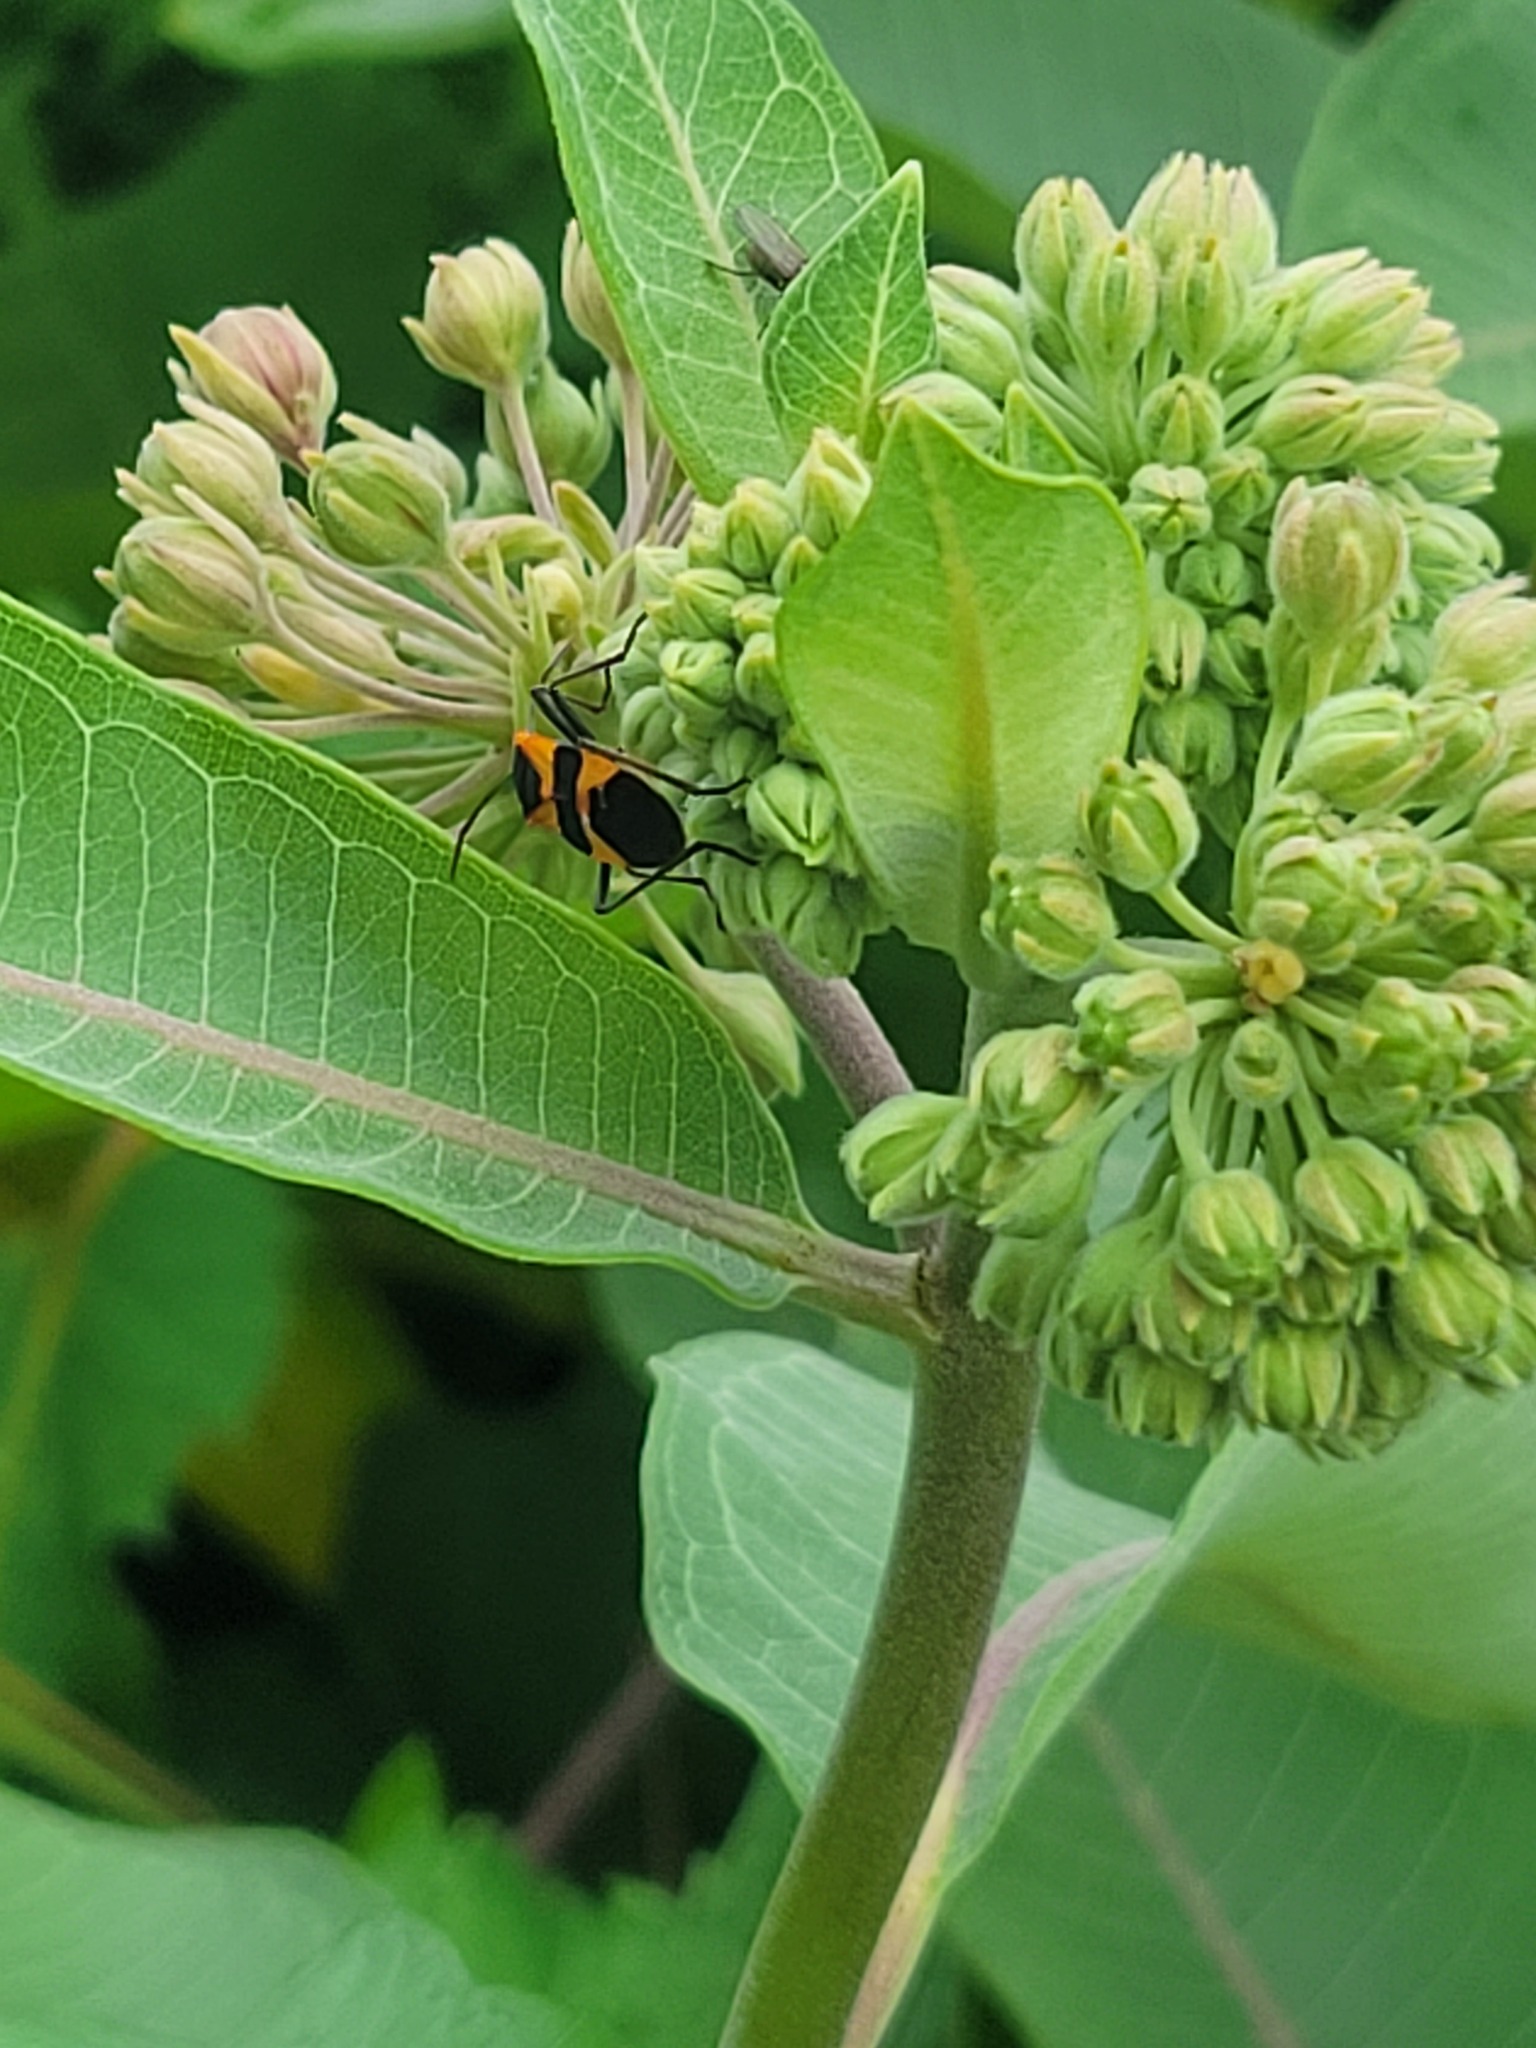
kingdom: Animalia
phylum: Arthropoda
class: Insecta
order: Hemiptera
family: Lygaeidae
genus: Oncopeltus
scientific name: Oncopeltus fasciatus
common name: Large milkweed bug
